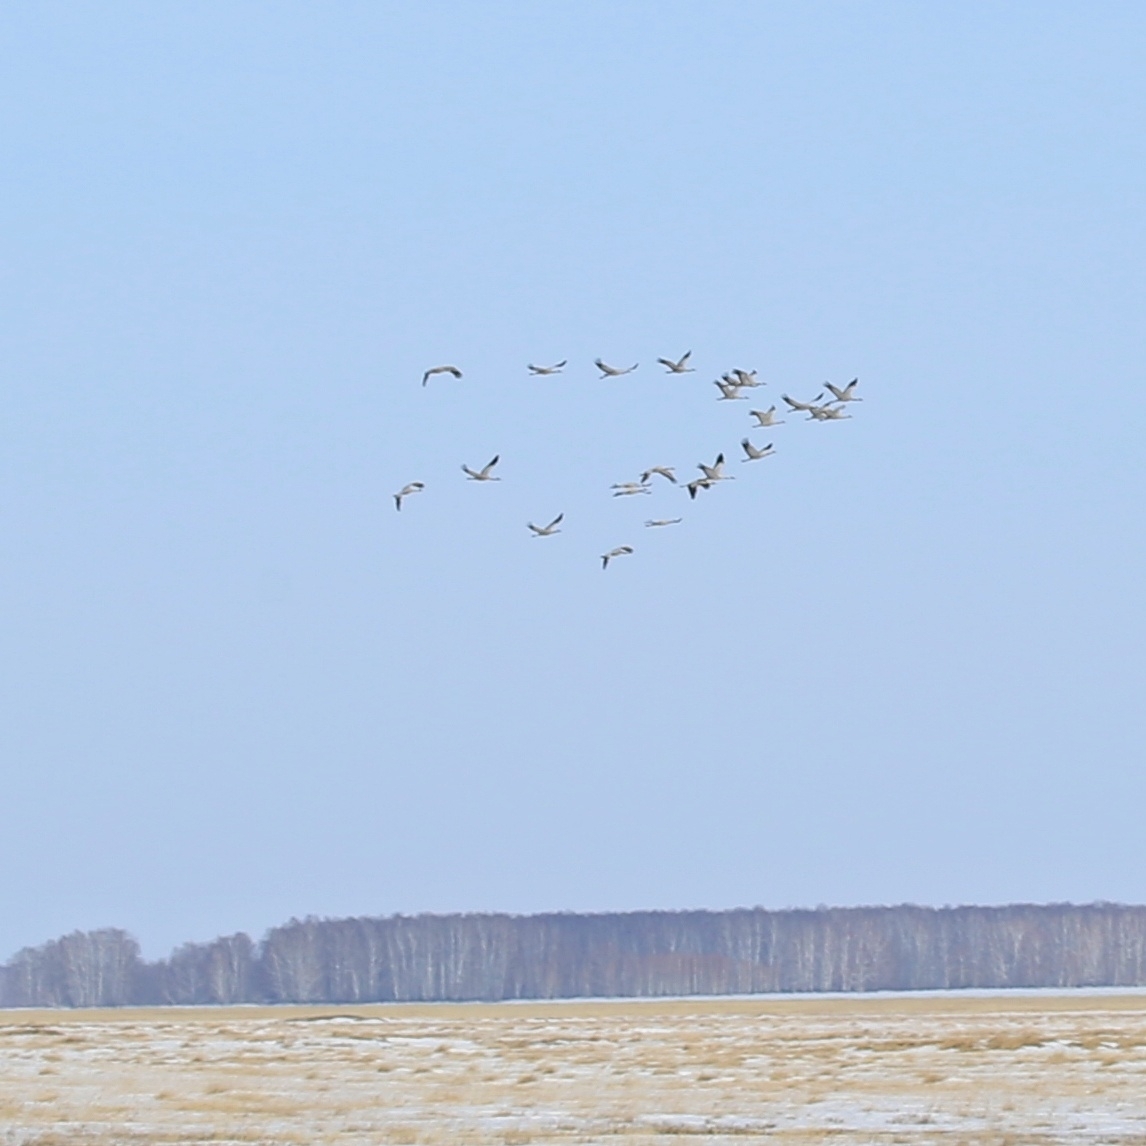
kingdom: Animalia
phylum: Chordata
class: Aves
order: Gruiformes
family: Gruidae
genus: Grus
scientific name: Grus grus
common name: Common crane
